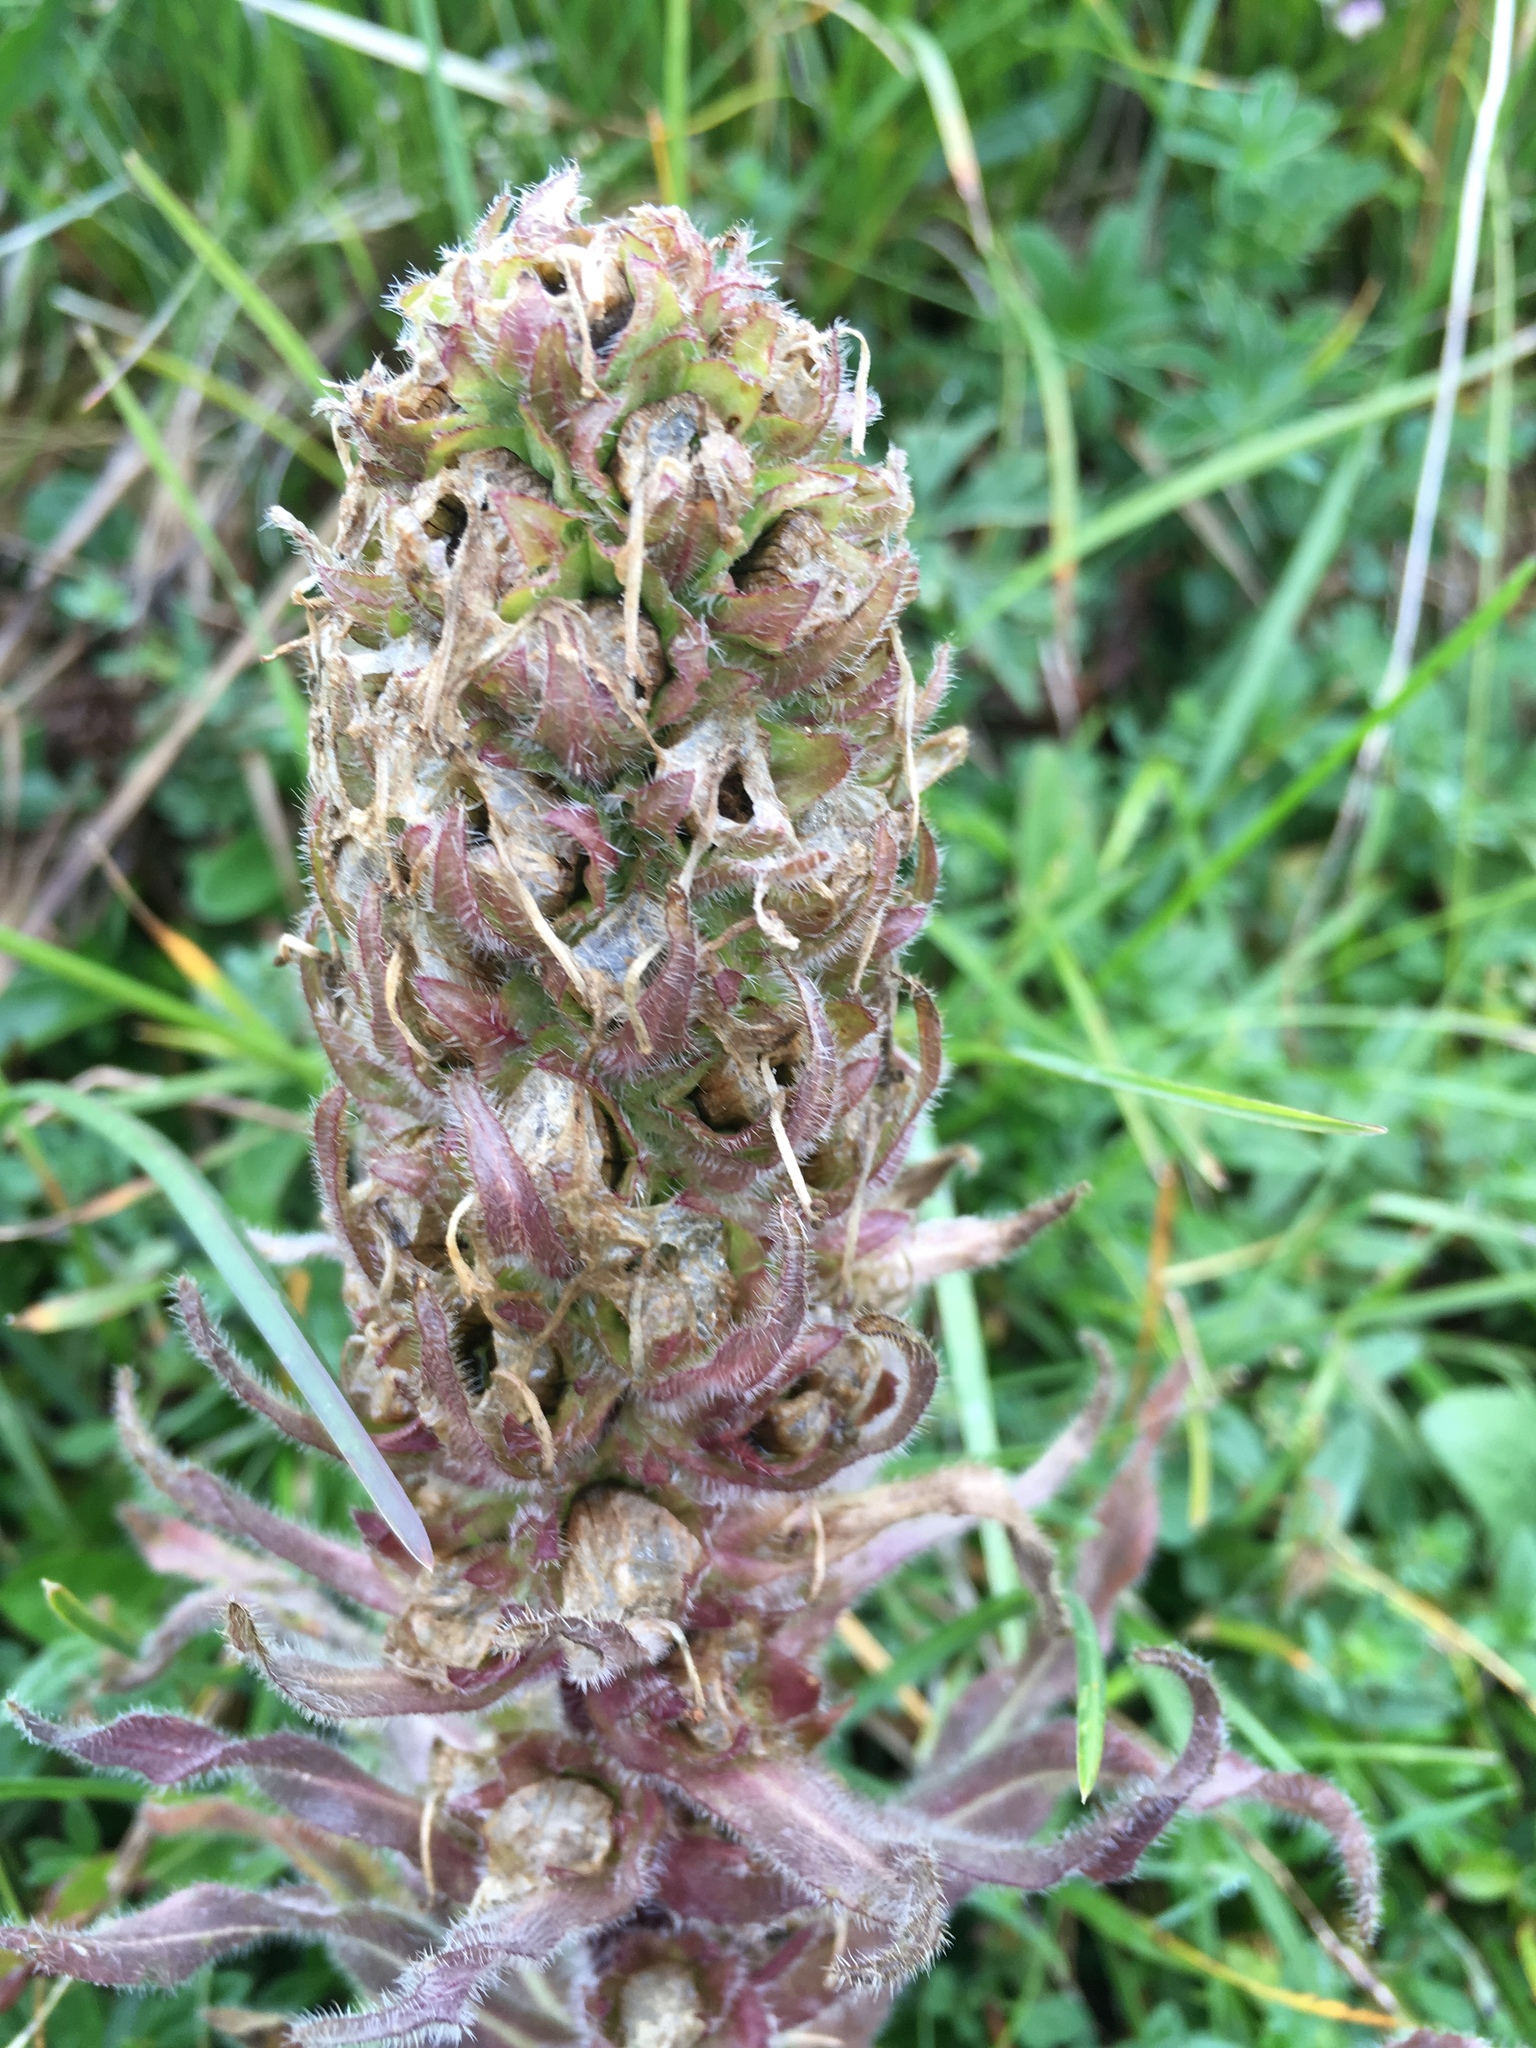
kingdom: Plantae
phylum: Tracheophyta
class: Magnoliopsida
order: Asterales
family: Campanulaceae
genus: Campanula
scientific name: Campanula thyrsoides
